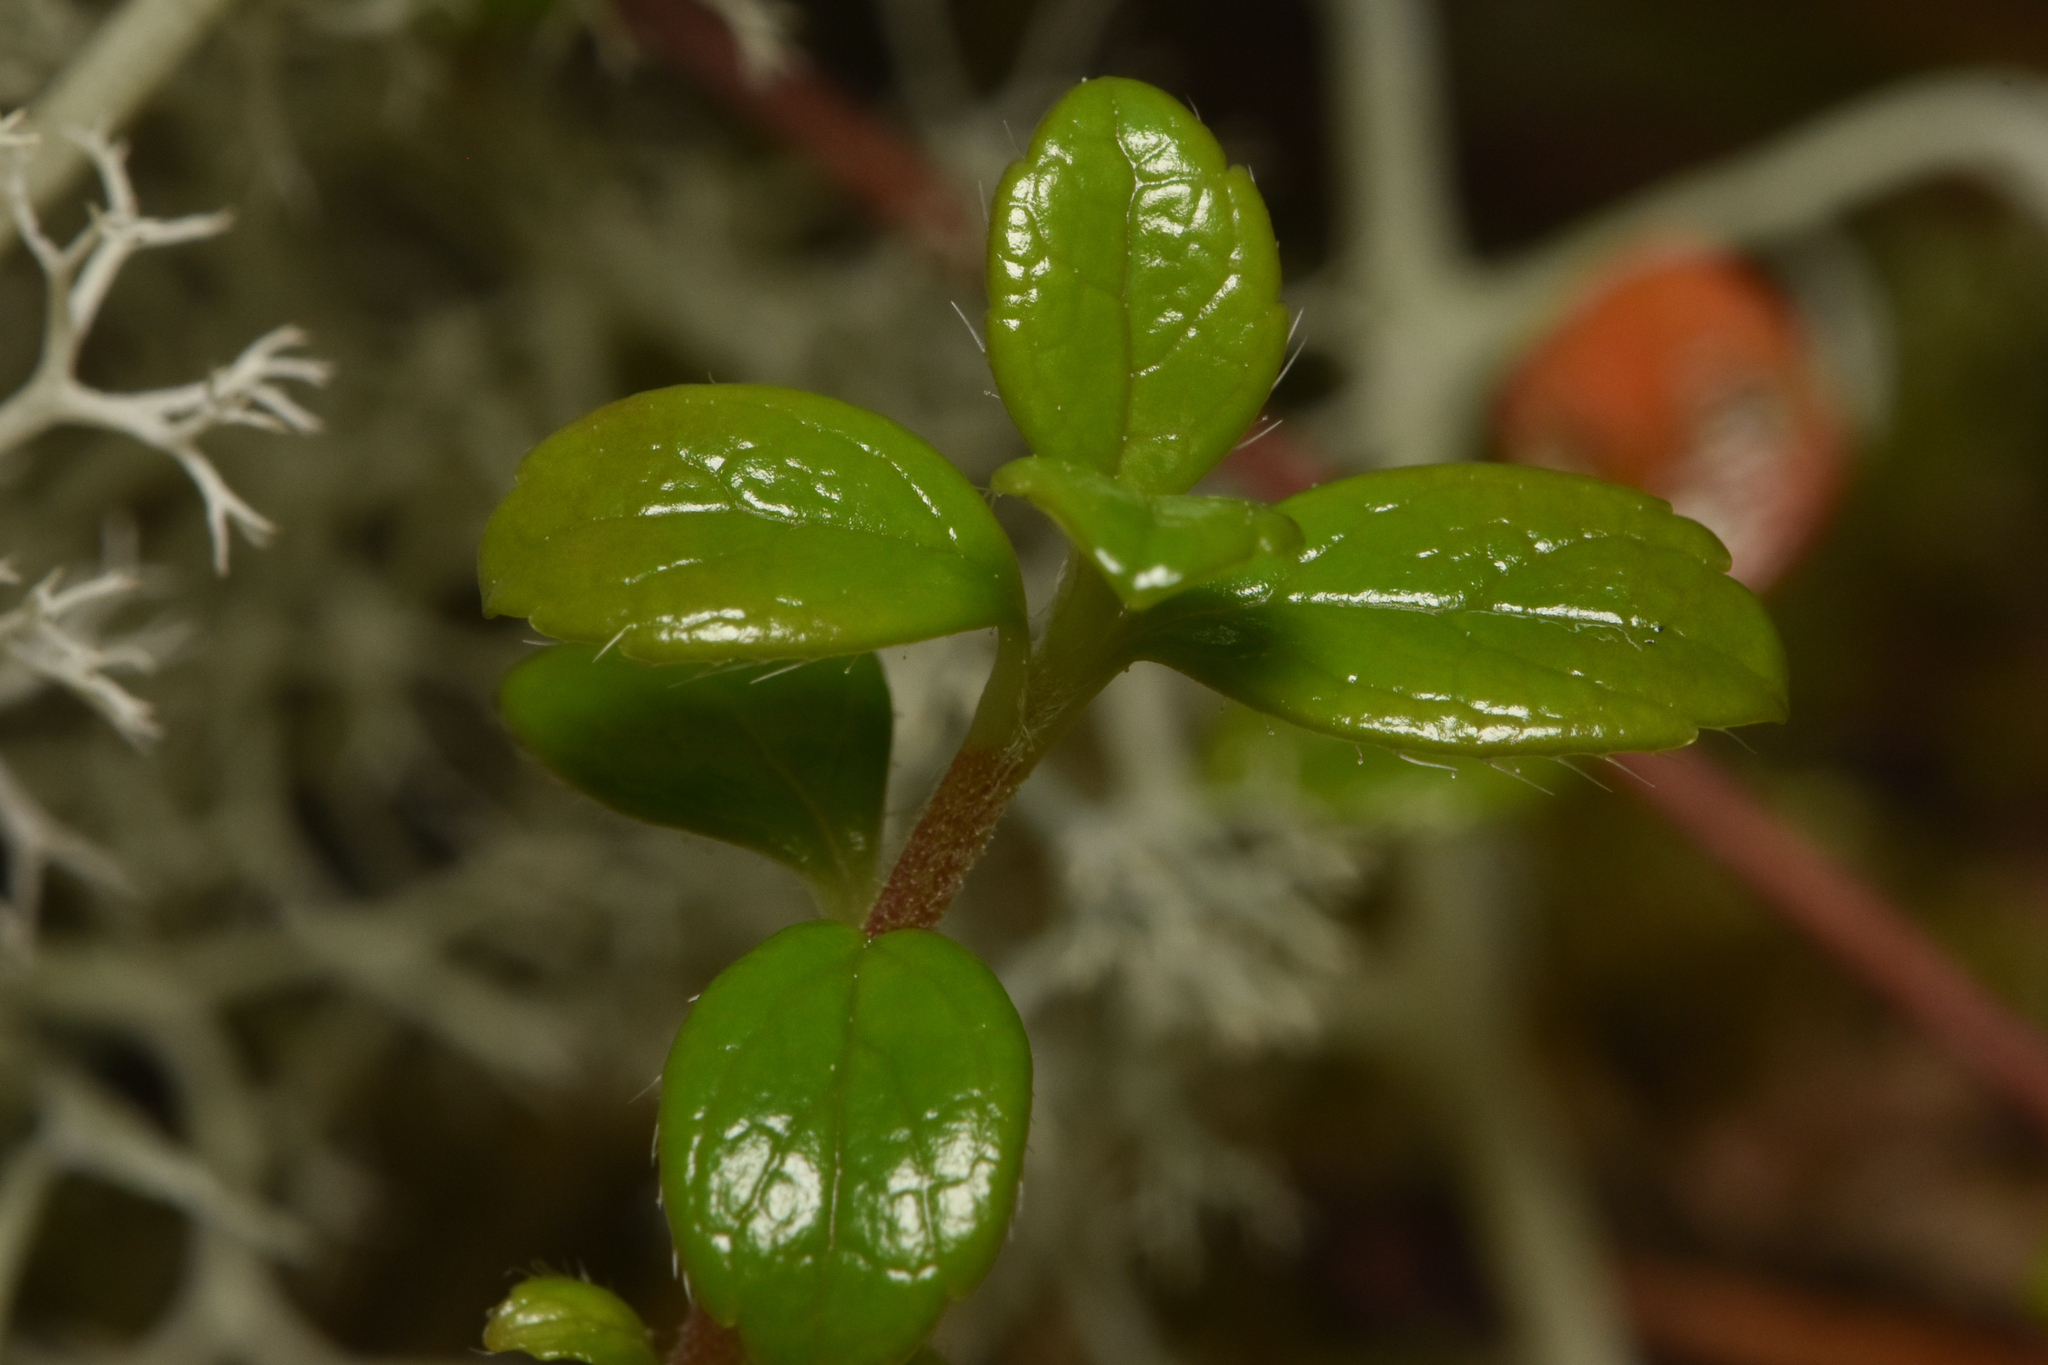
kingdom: Plantae
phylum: Tracheophyta
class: Magnoliopsida
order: Dipsacales
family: Caprifoliaceae
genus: Linnaea
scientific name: Linnaea borealis
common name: Twinflower
